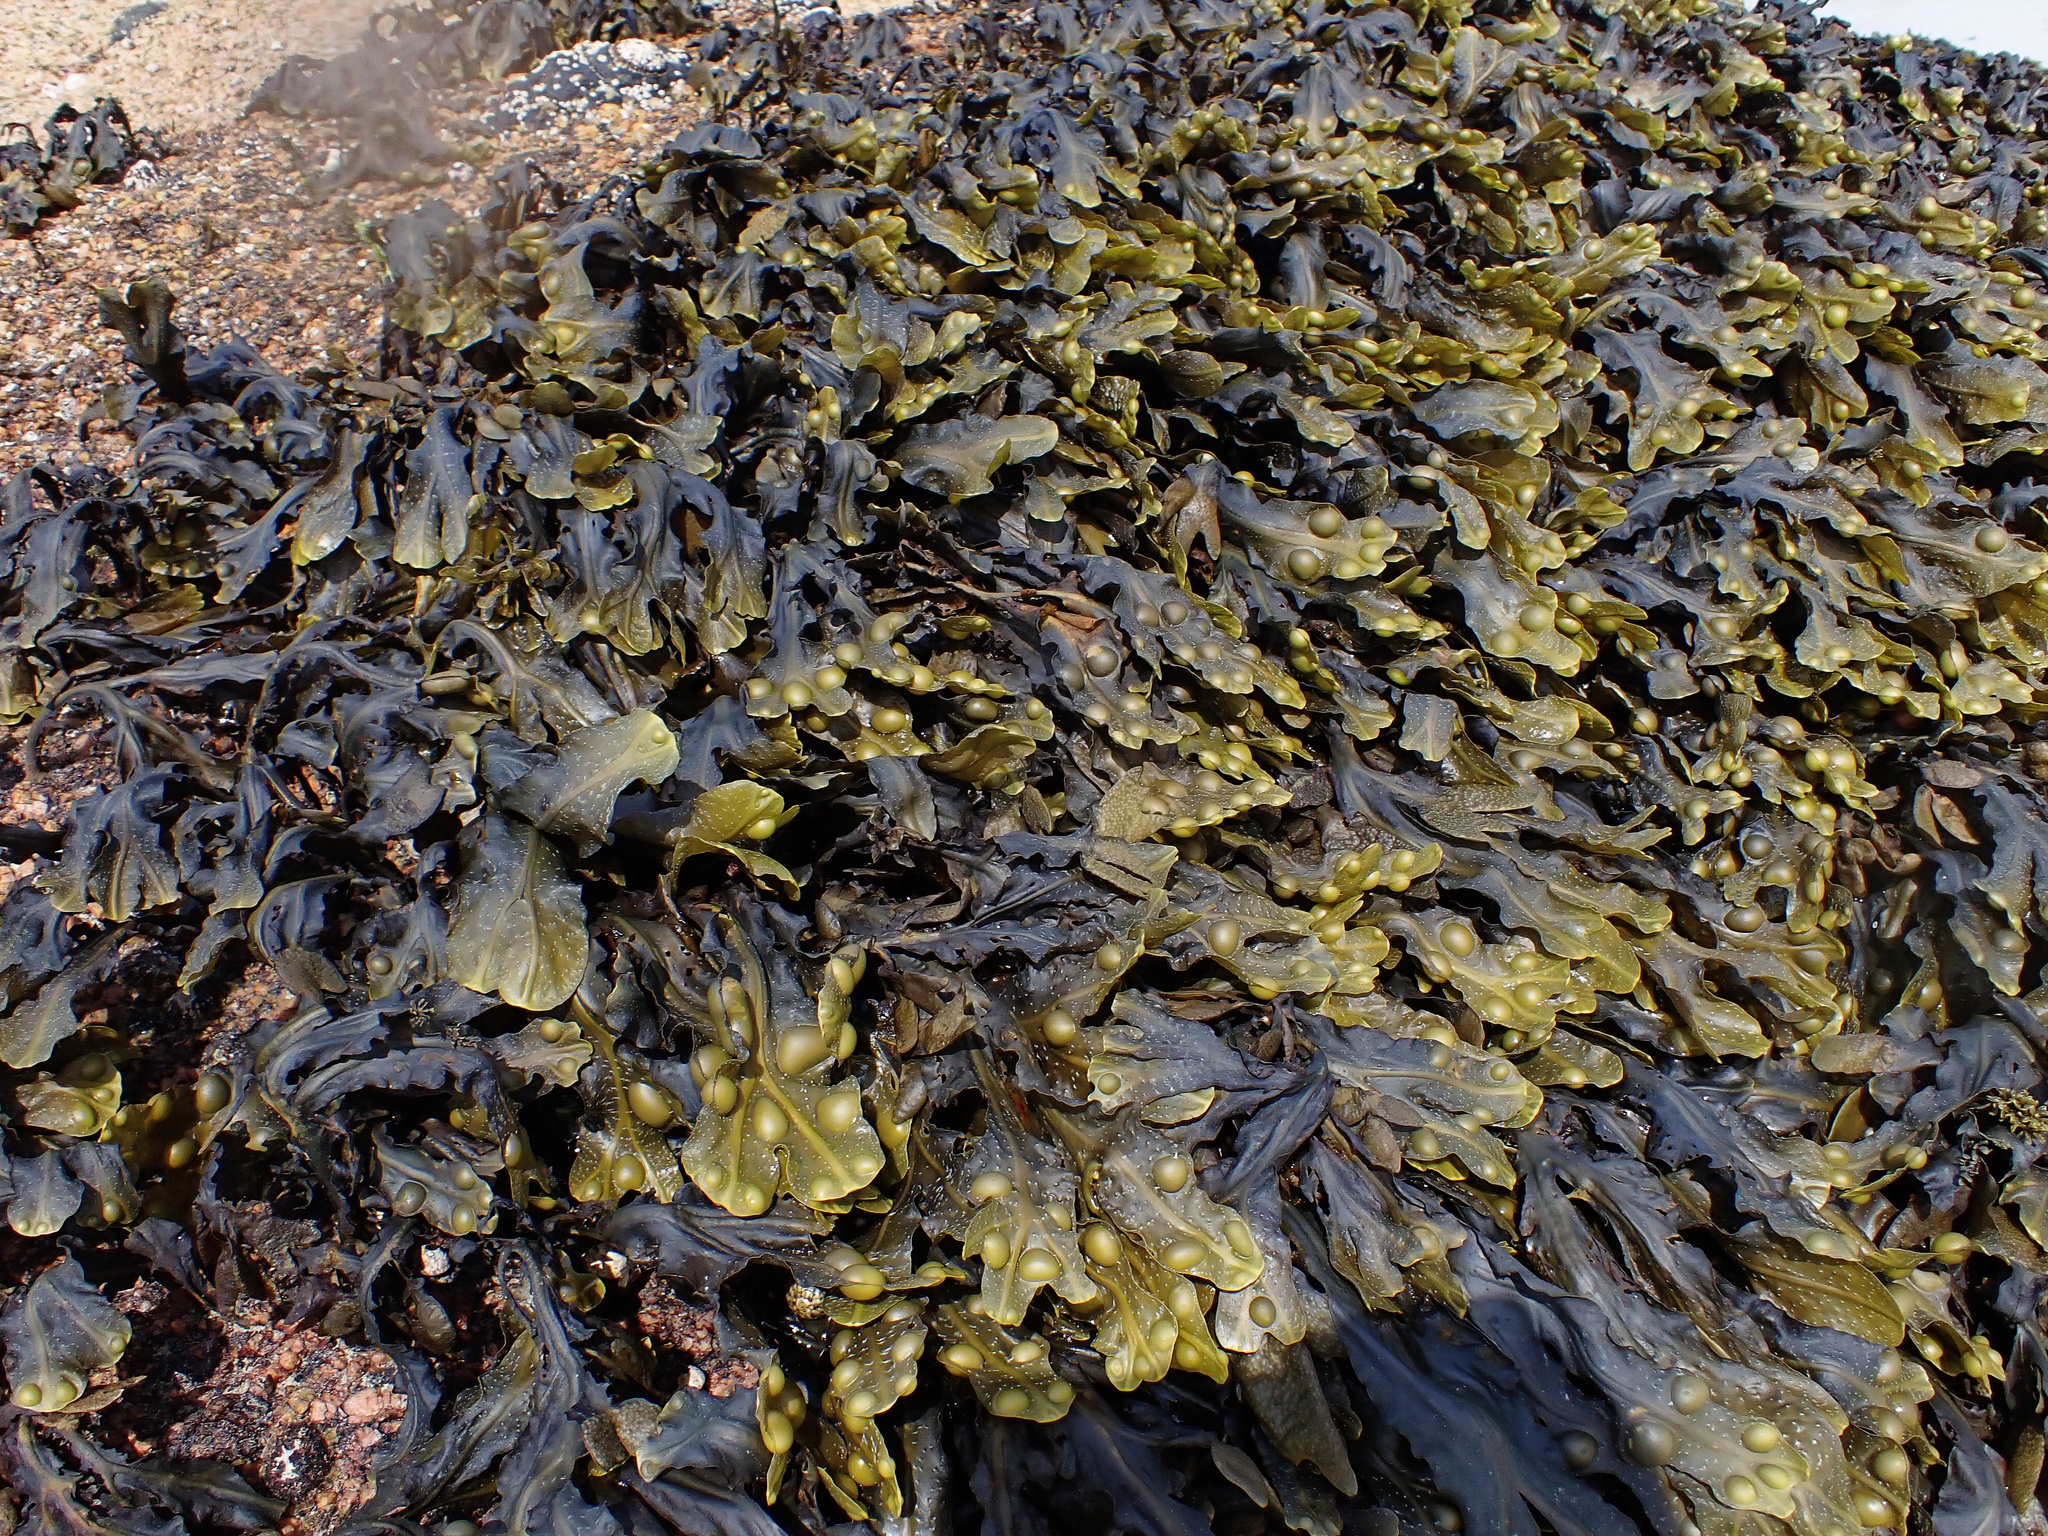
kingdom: Chromista
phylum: Ochrophyta
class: Phaeophyceae
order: Fucales
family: Fucaceae
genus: Fucus
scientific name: Fucus vesiculosus
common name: Bladder wrack
